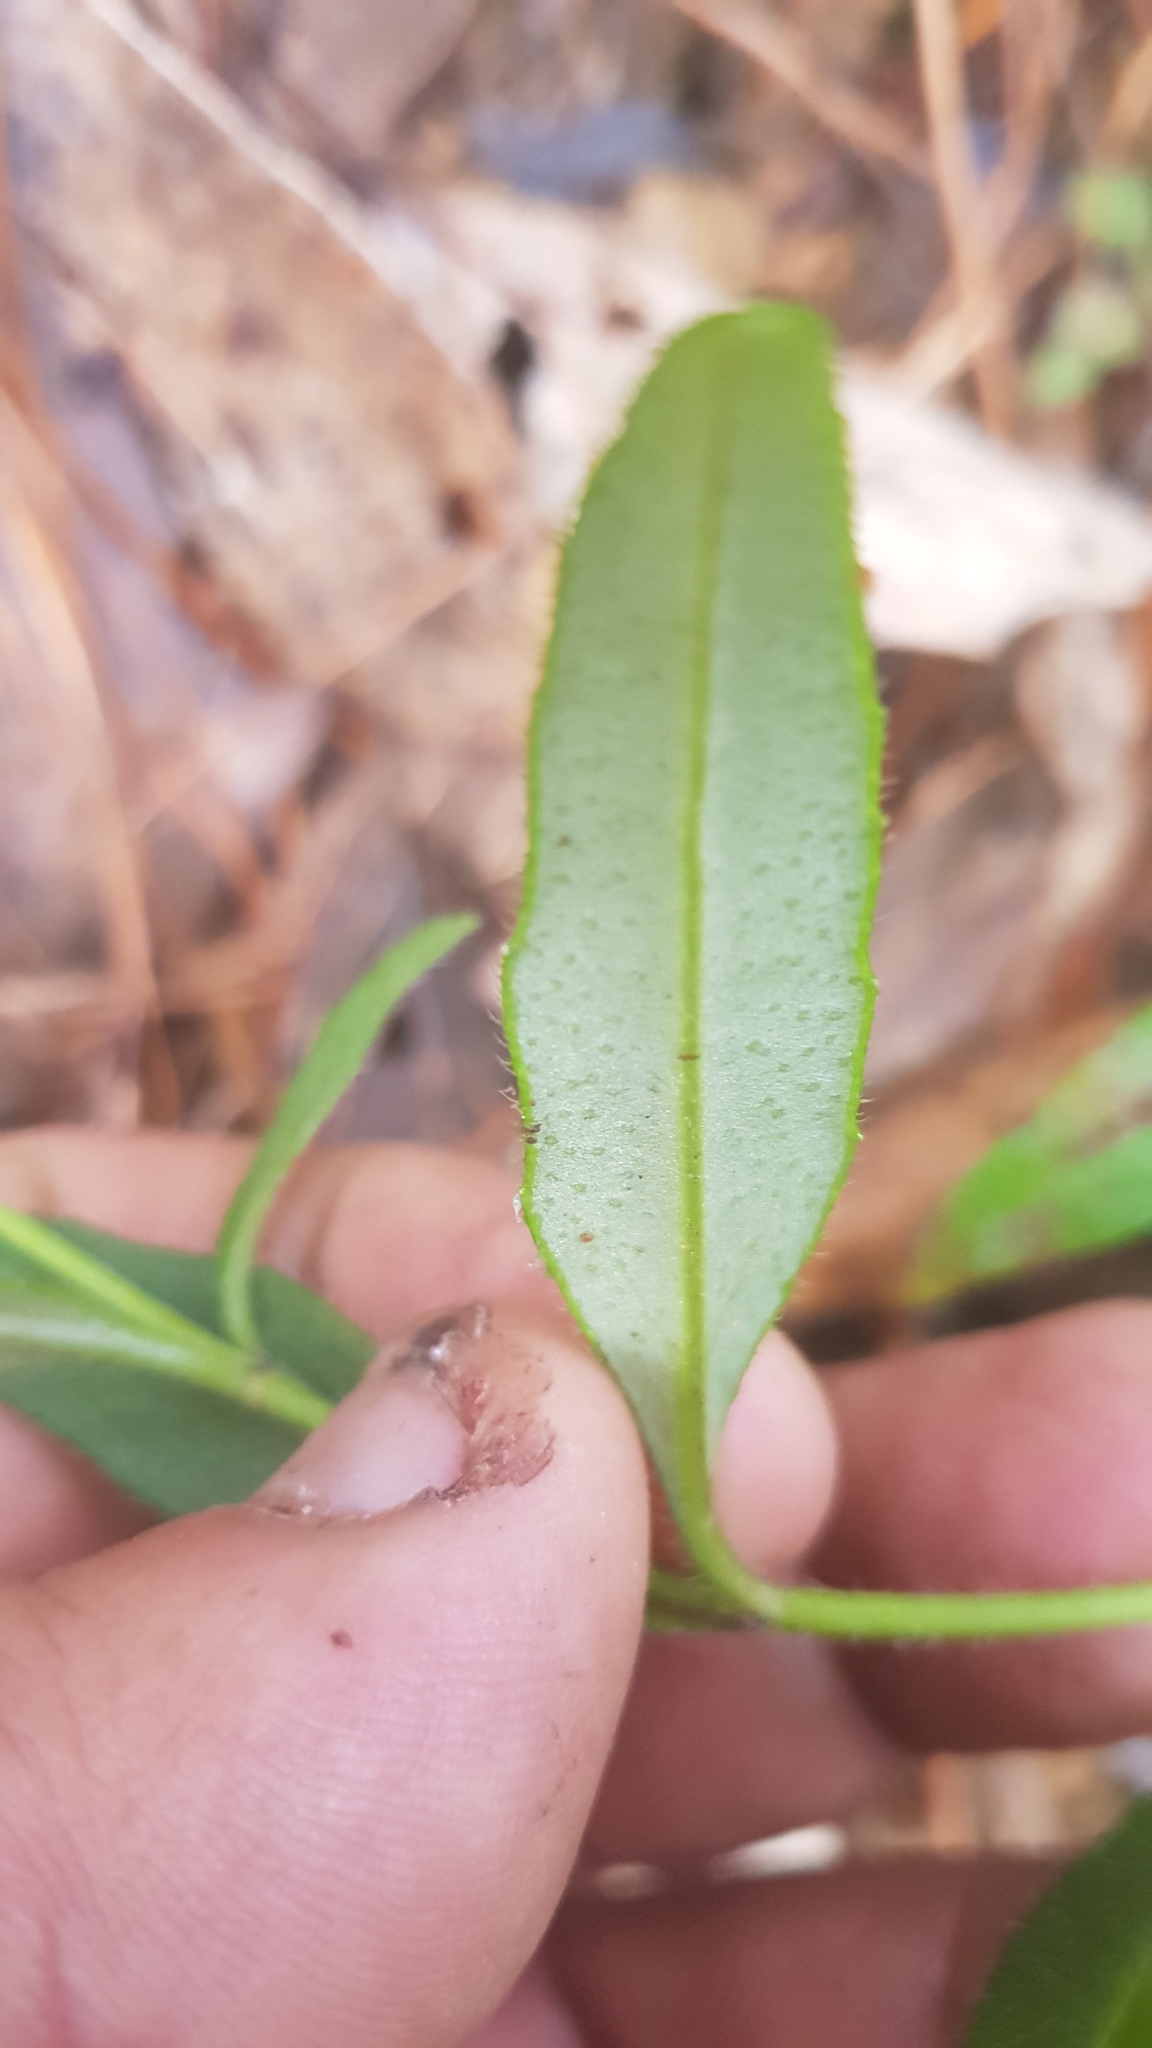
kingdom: Plantae
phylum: Tracheophyta
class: Magnoliopsida
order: Asterales
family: Asteraceae
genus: Tridax
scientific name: Tridax paneroi
